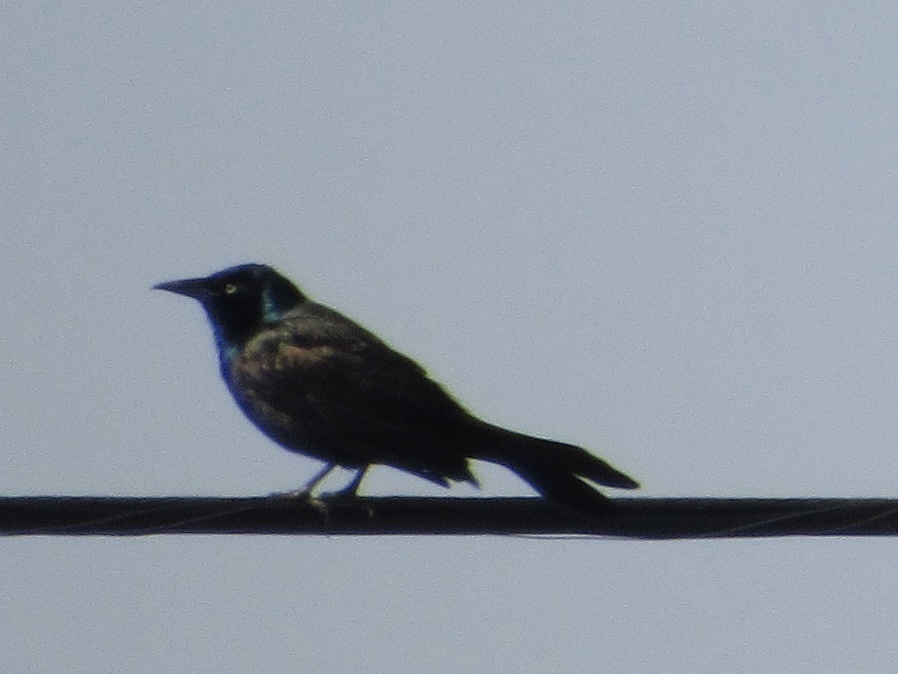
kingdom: Animalia
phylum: Chordata
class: Aves
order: Passeriformes
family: Icteridae
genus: Quiscalus
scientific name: Quiscalus quiscula
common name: Common grackle
